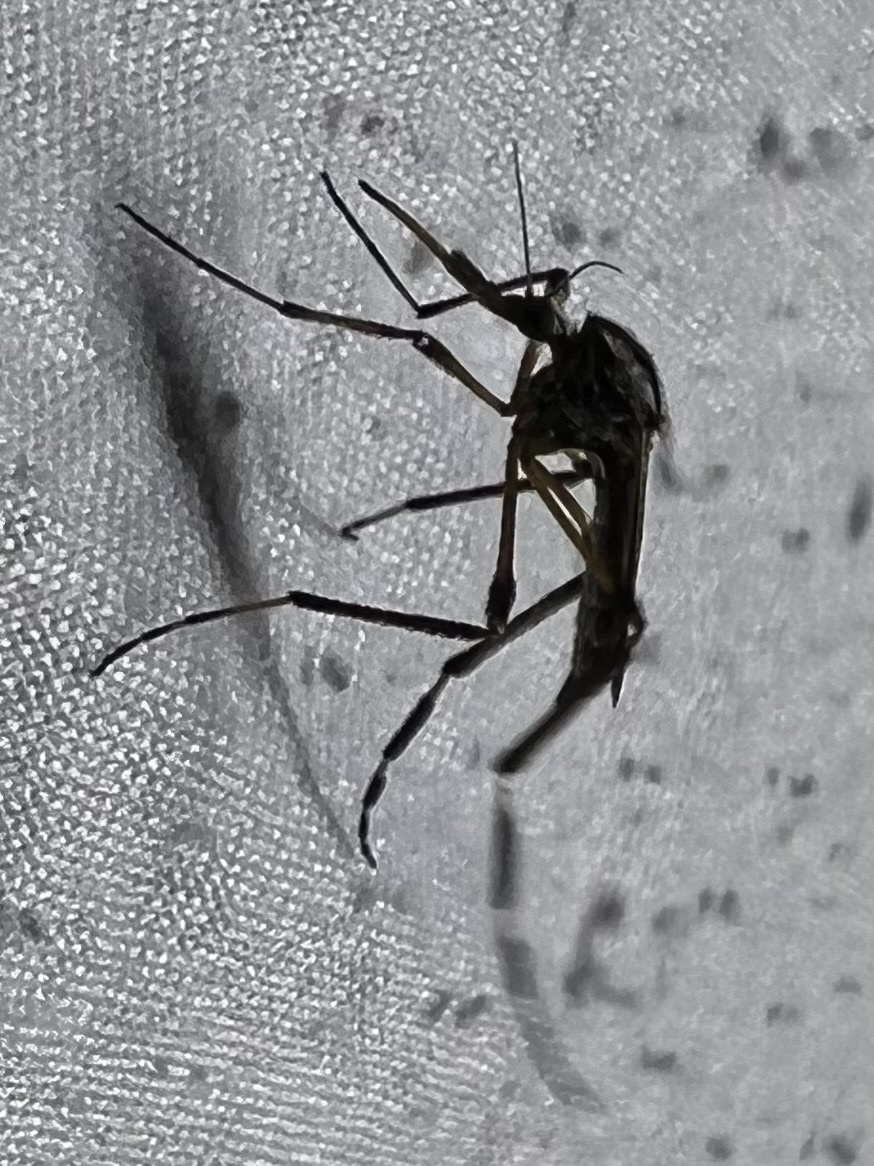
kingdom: Animalia
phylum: Arthropoda
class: Insecta
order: Diptera
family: Culicidae
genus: Psorophora
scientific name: Psorophora ciliata
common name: Gallinipper
